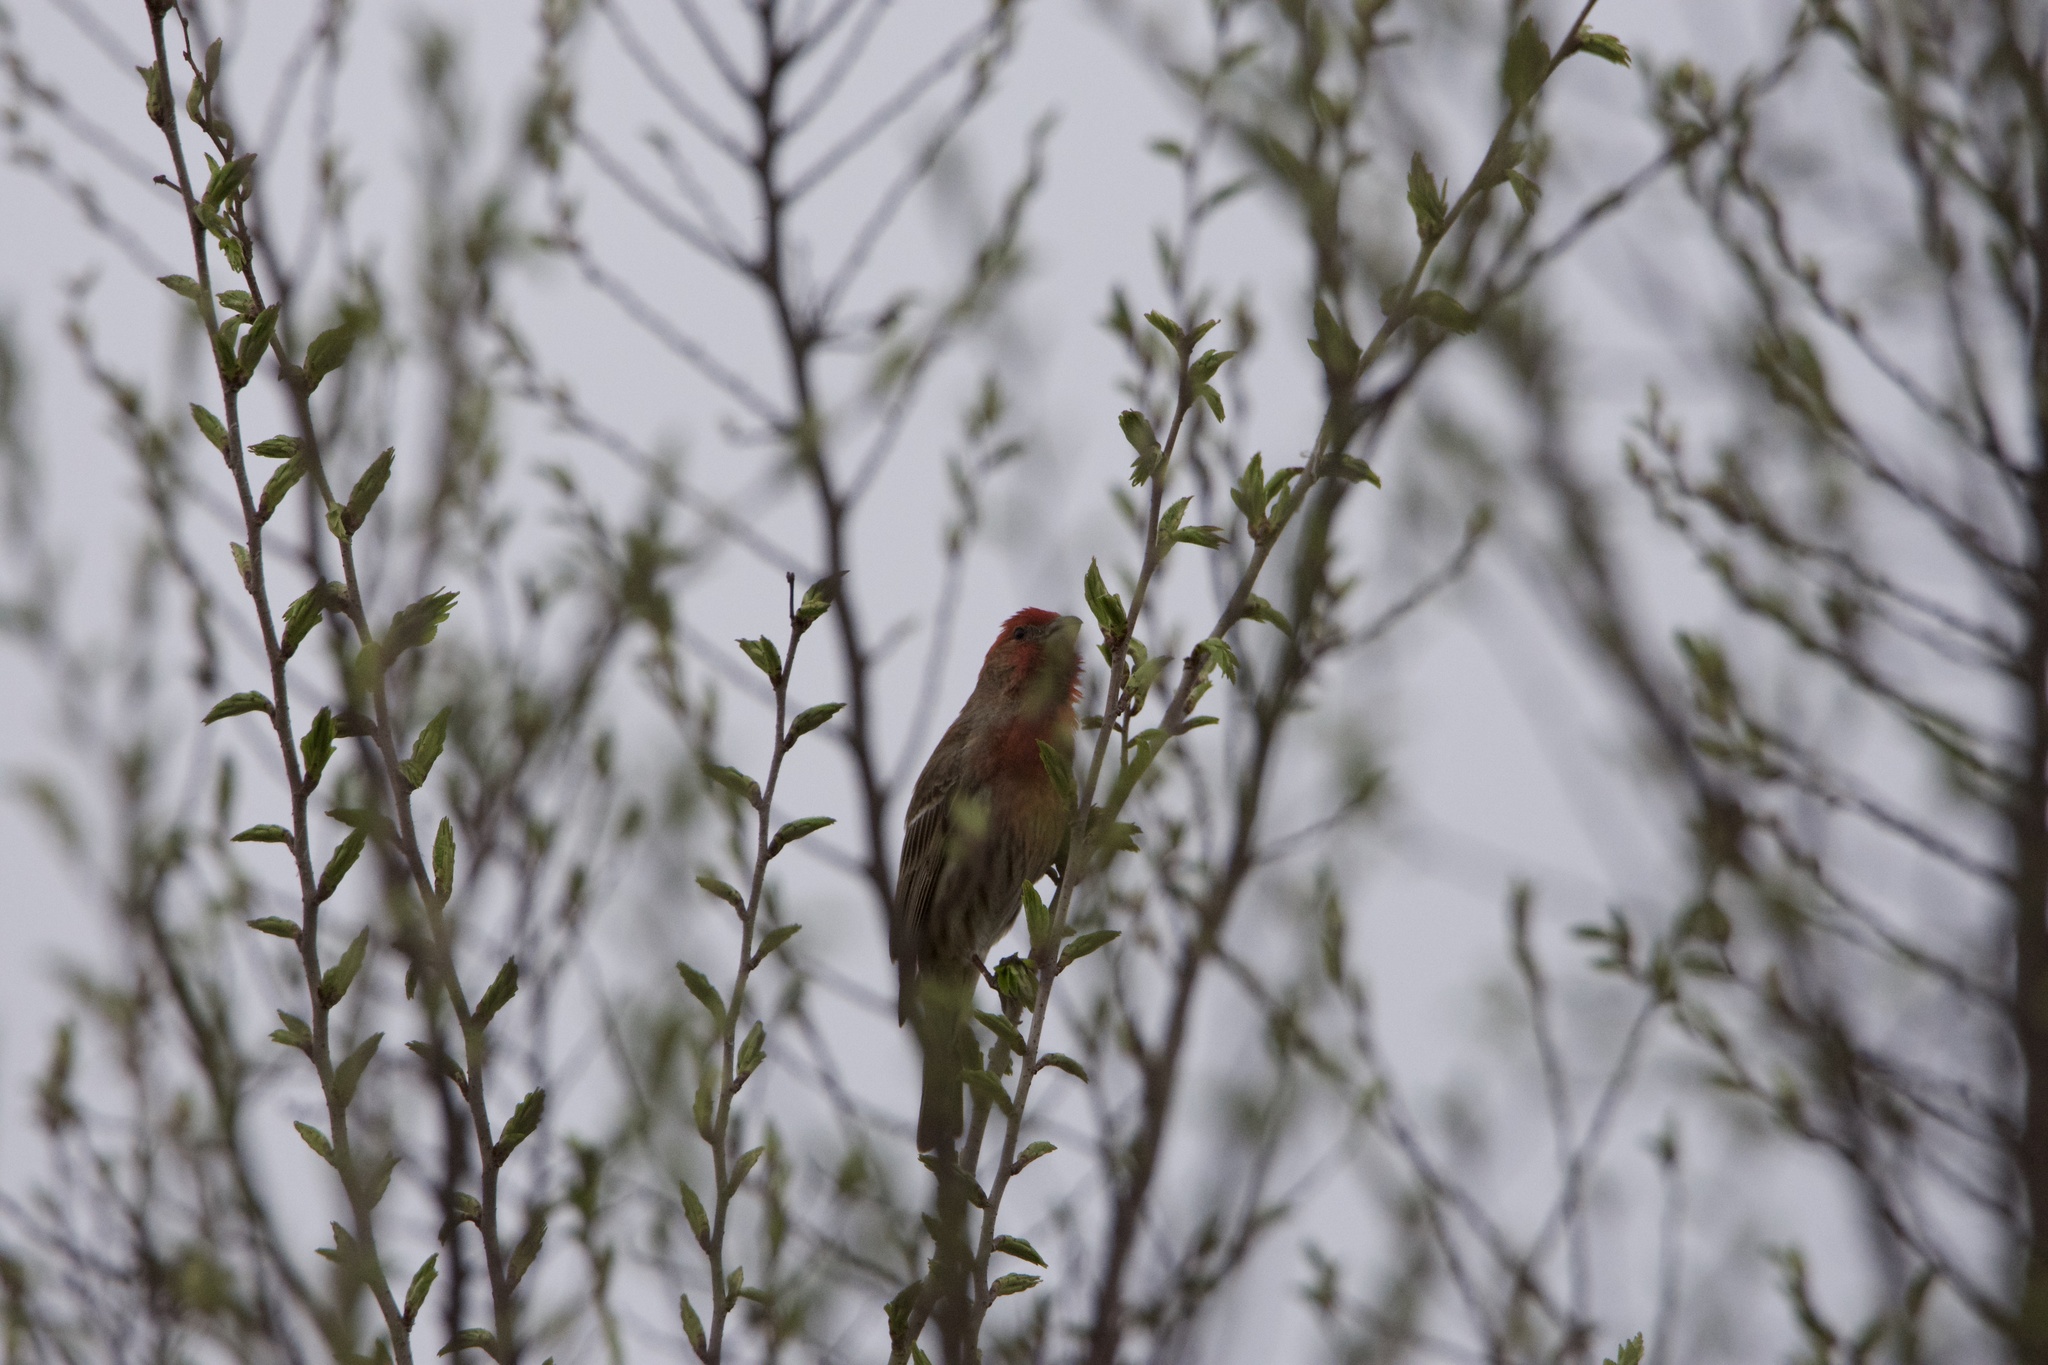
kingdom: Animalia
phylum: Chordata
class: Aves
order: Passeriformes
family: Fringillidae
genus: Haemorhous
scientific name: Haemorhous mexicanus
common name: House finch
